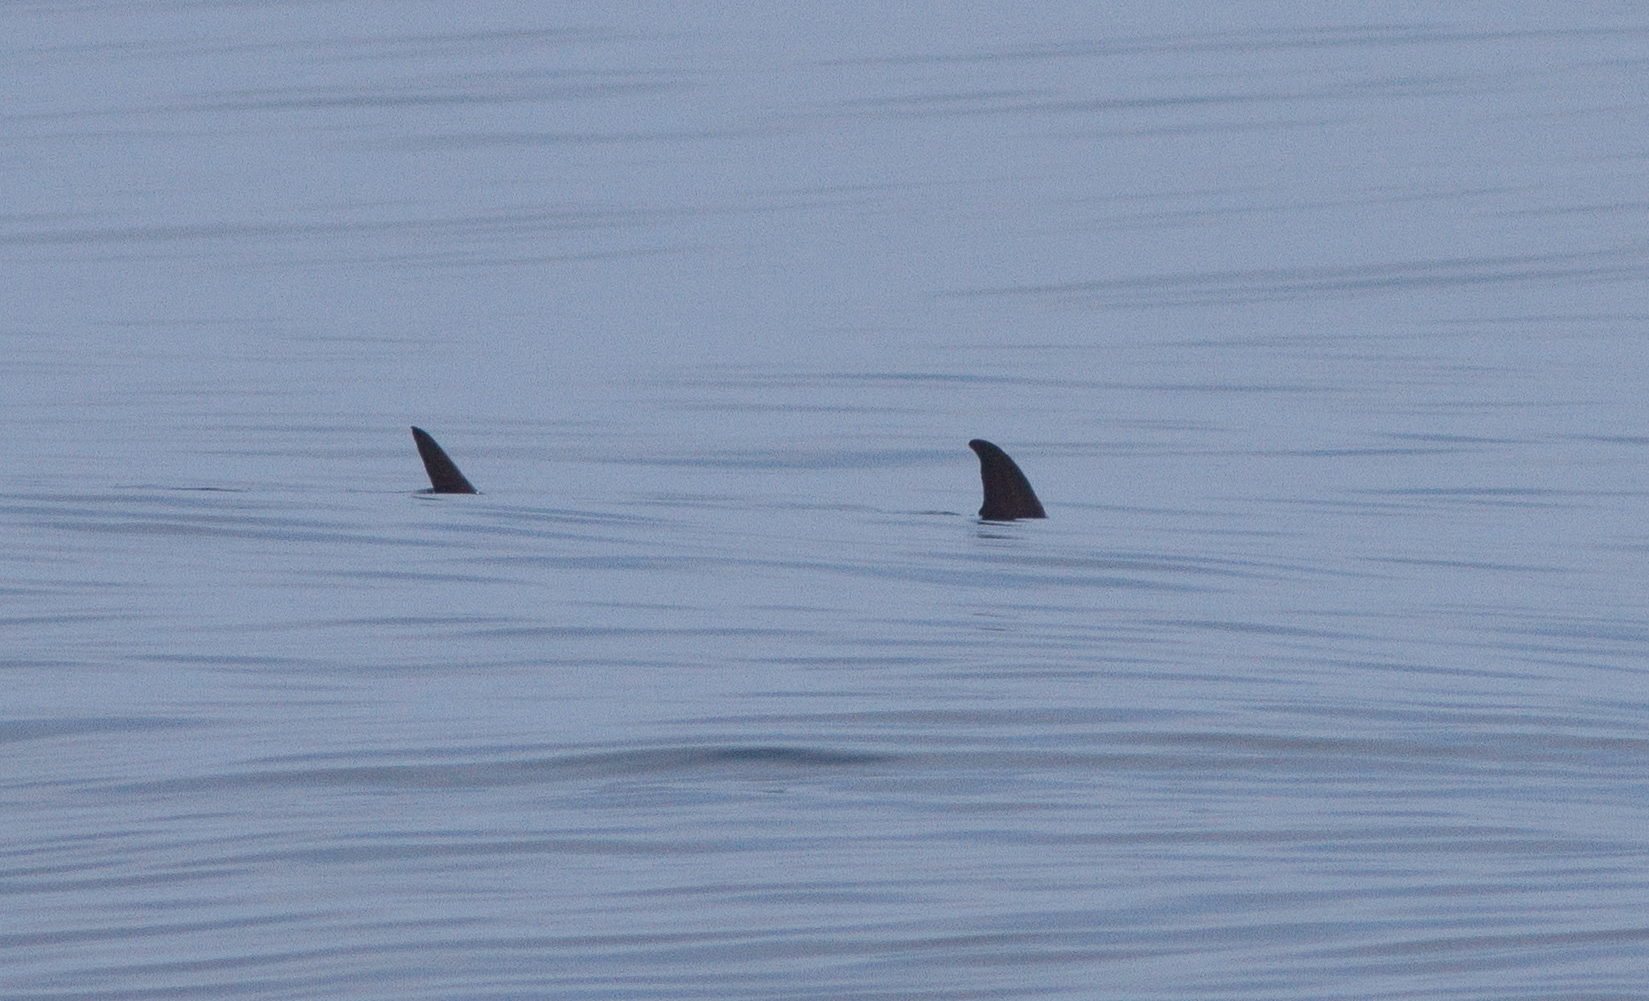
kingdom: Animalia
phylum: Chordata
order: Perciformes
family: Xiphiidae
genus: Xiphias
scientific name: Xiphias gladius
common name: Swordfish
